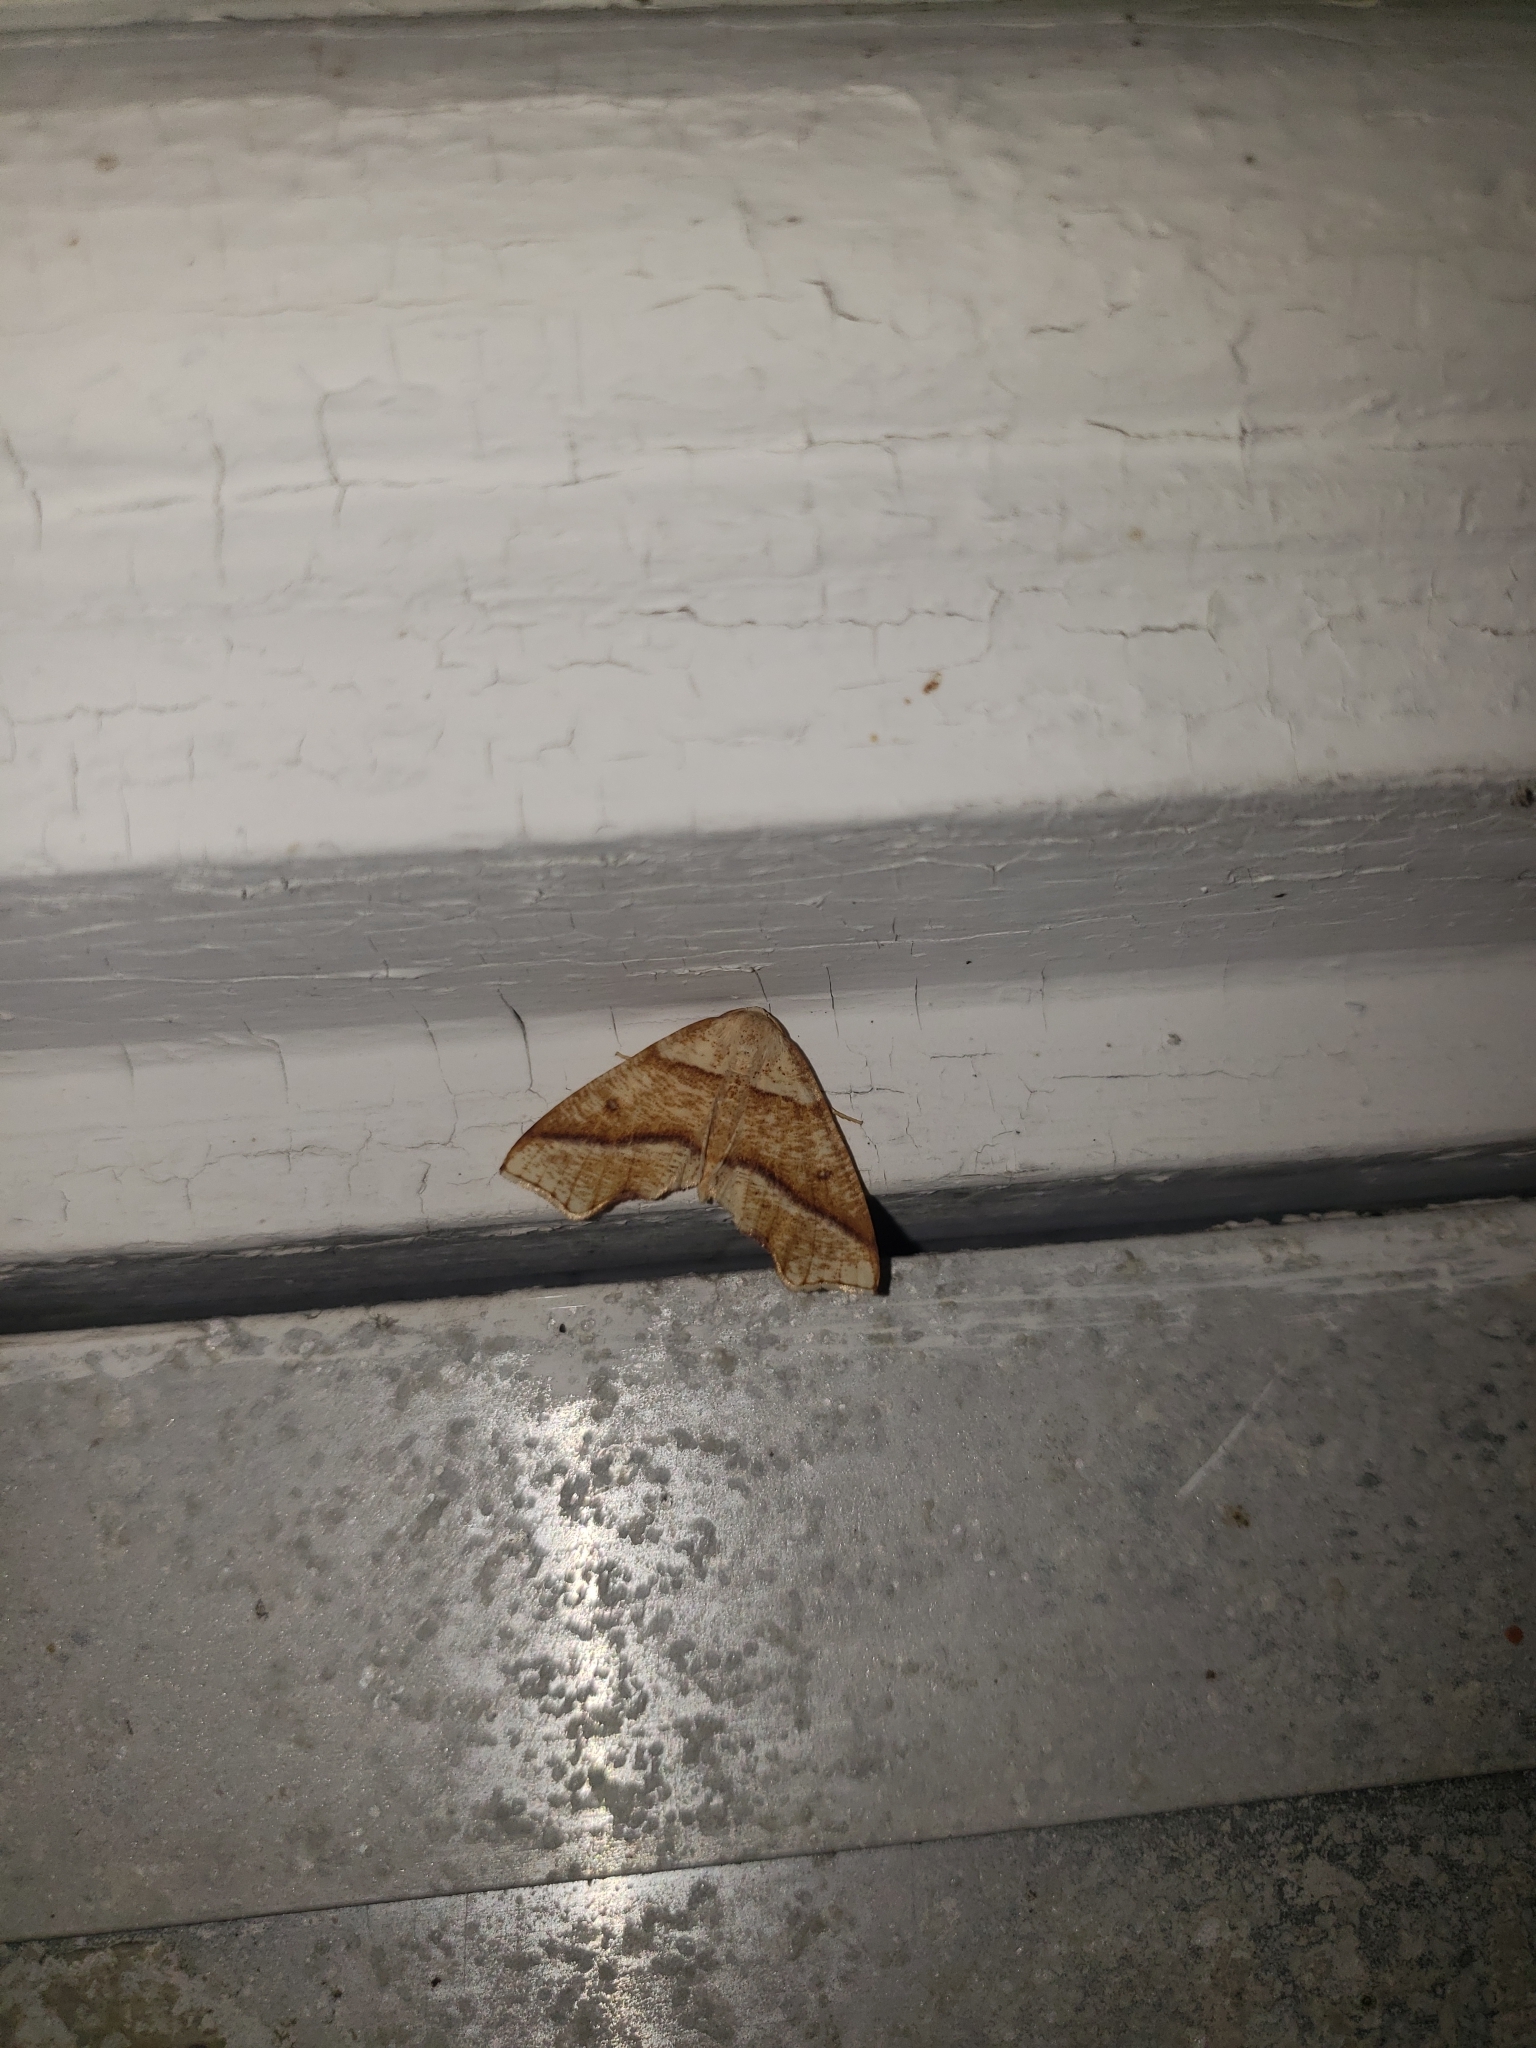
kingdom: Animalia
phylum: Arthropoda
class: Insecta
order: Lepidoptera
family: Geometridae
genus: Plagodis
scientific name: Plagodis alcoolaria
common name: Hollow-spotted plagodis
